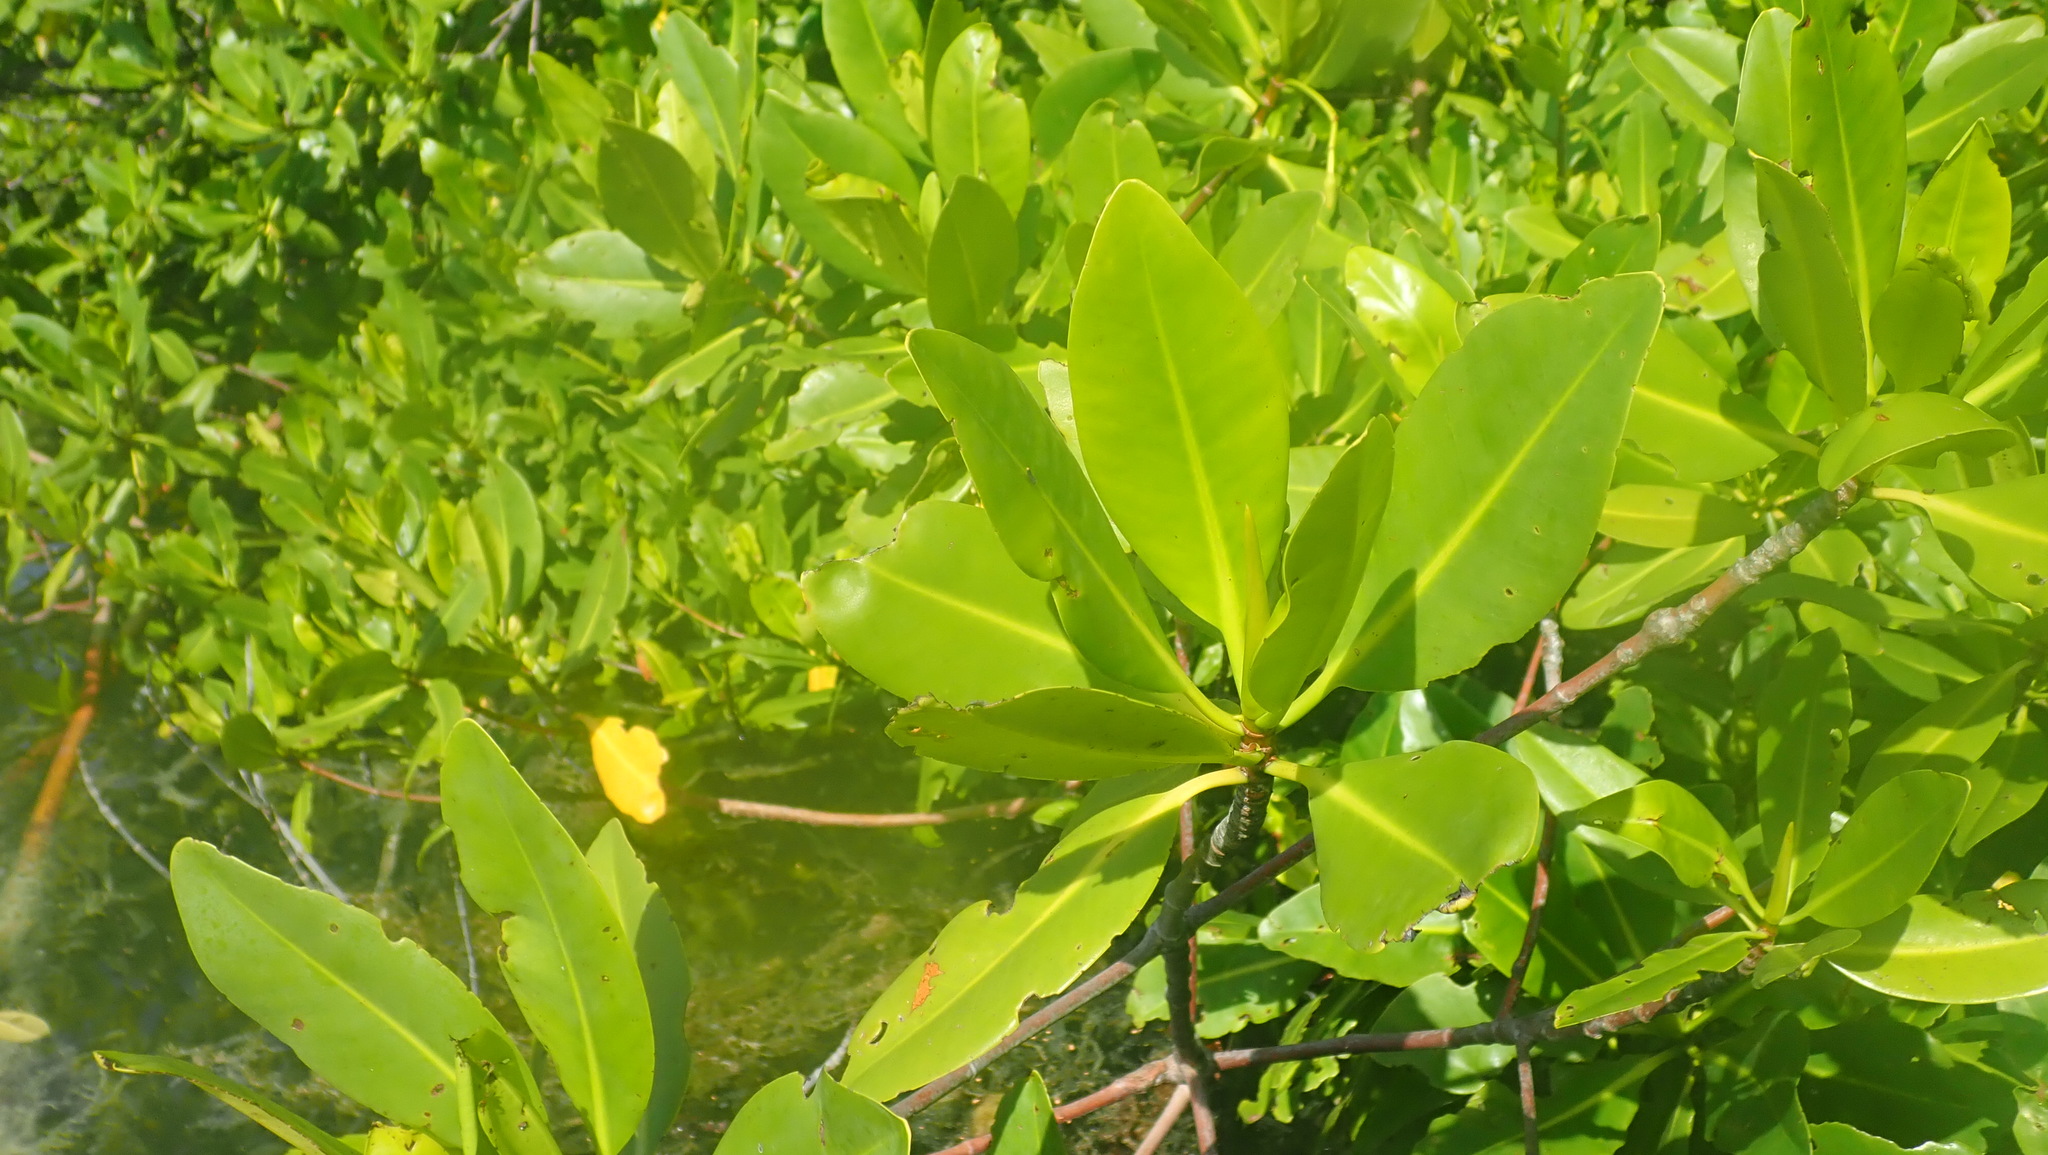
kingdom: Plantae
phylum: Tracheophyta
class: Magnoliopsida
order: Malpighiales
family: Rhizophoraceae
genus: Rhizophora
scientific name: Rhizophora mangle
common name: Red mangrove
